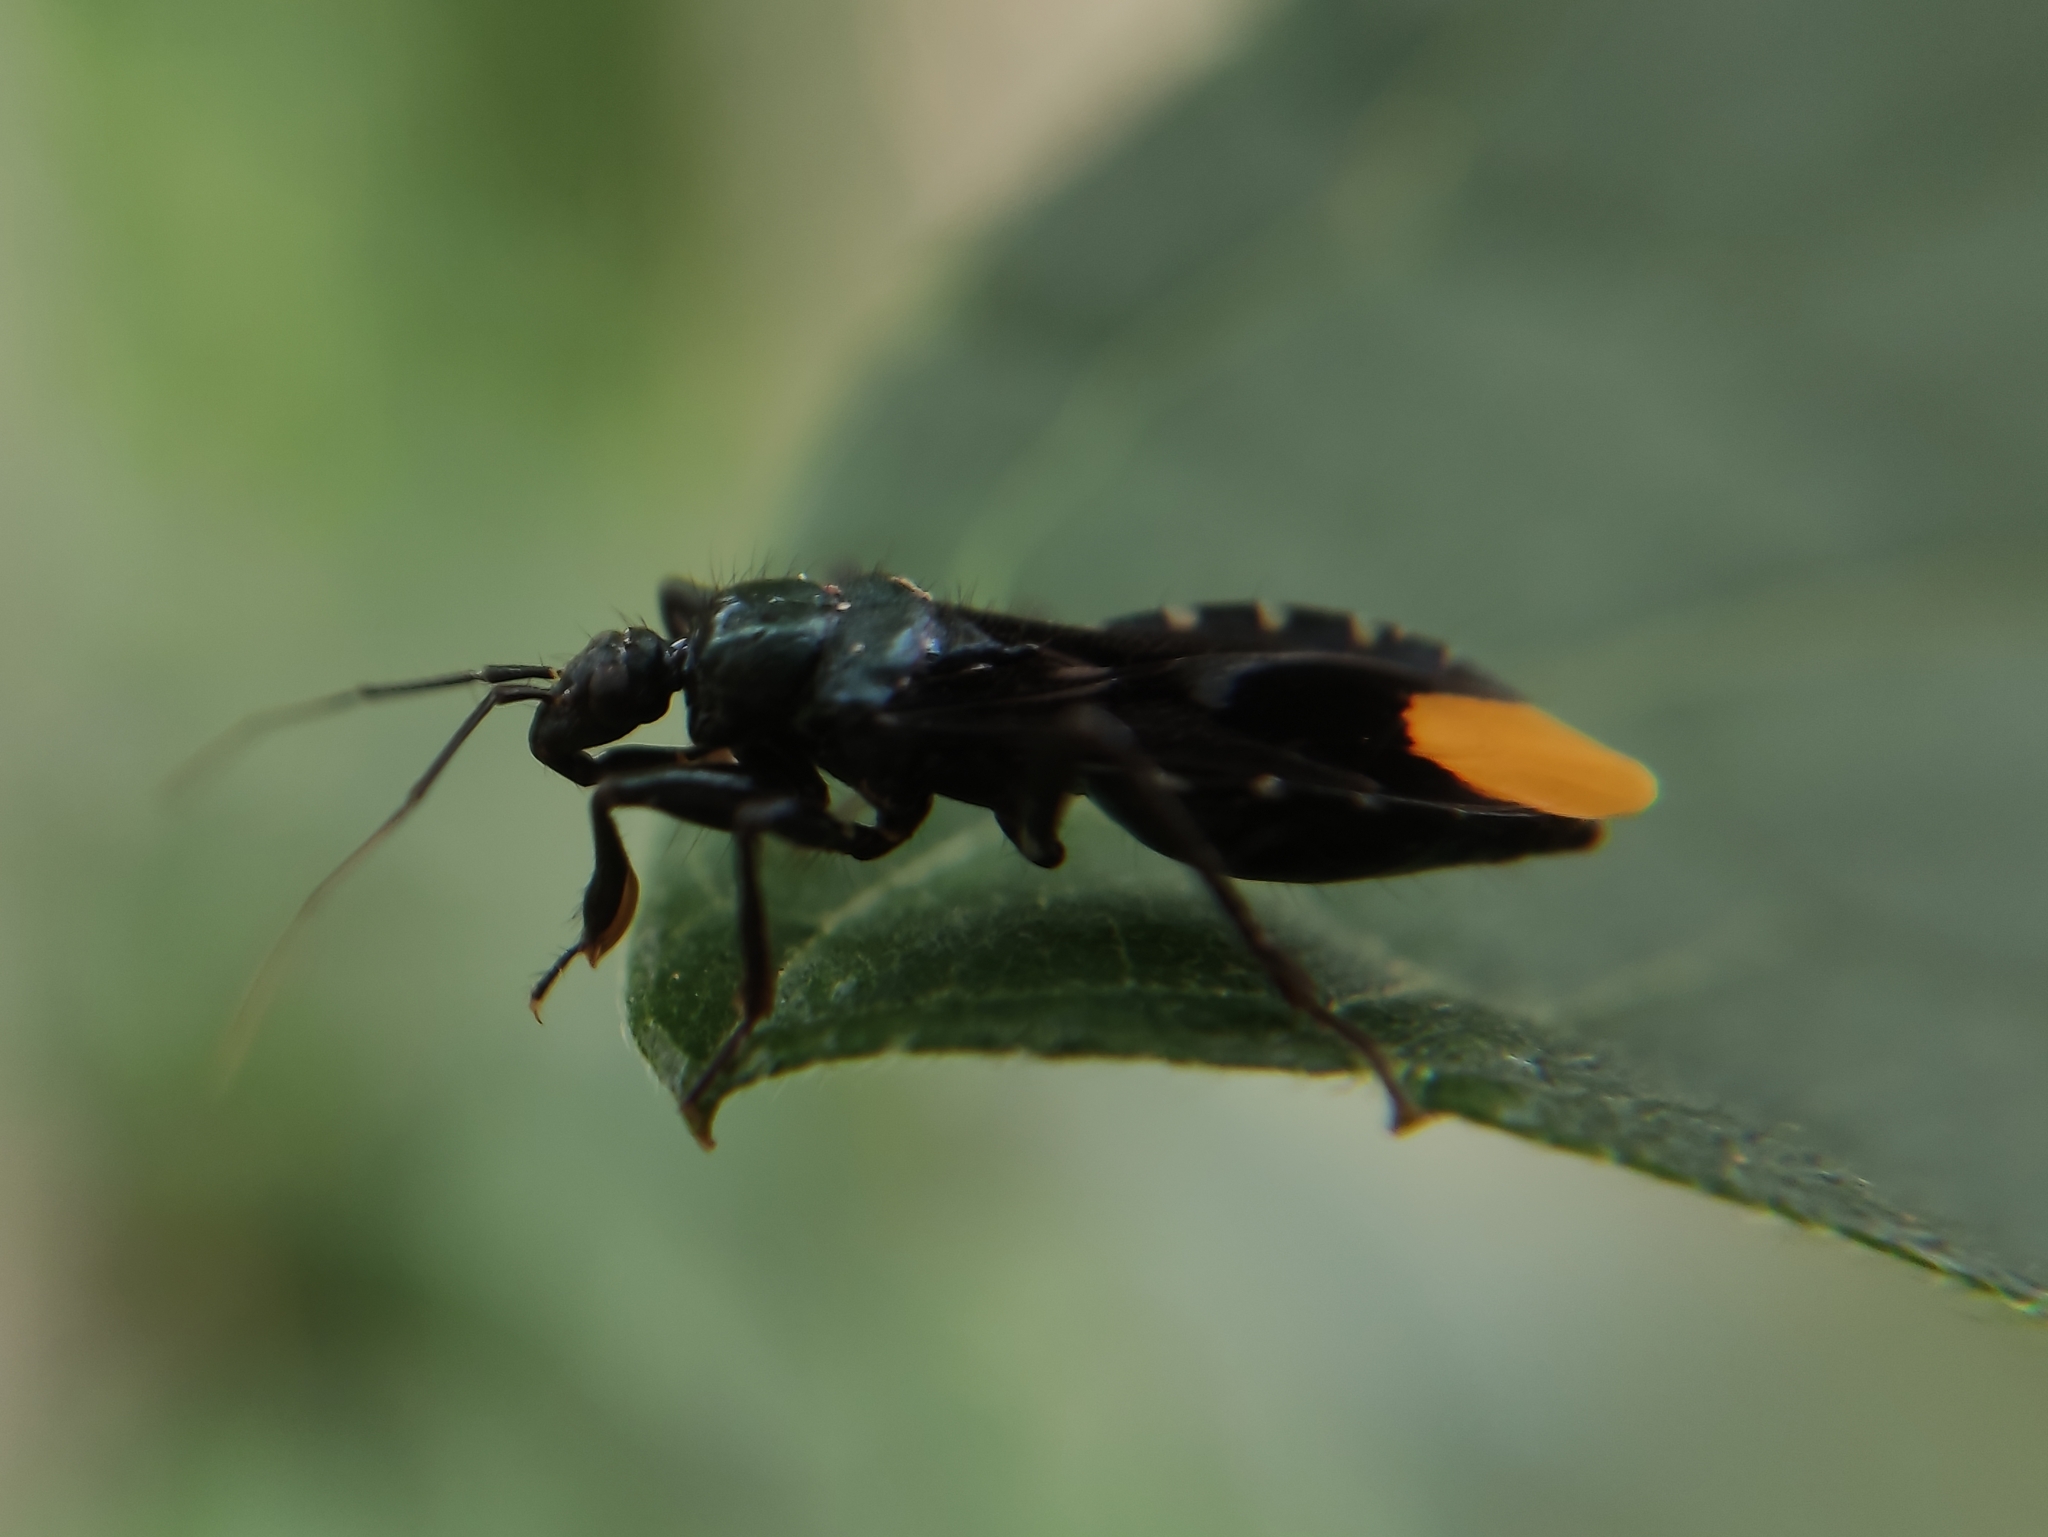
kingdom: Animalia
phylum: Arthropoda
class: Insecta
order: Hemiptera
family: Reduviidae
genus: Zeraikia
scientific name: Zeraikia zeraikae
